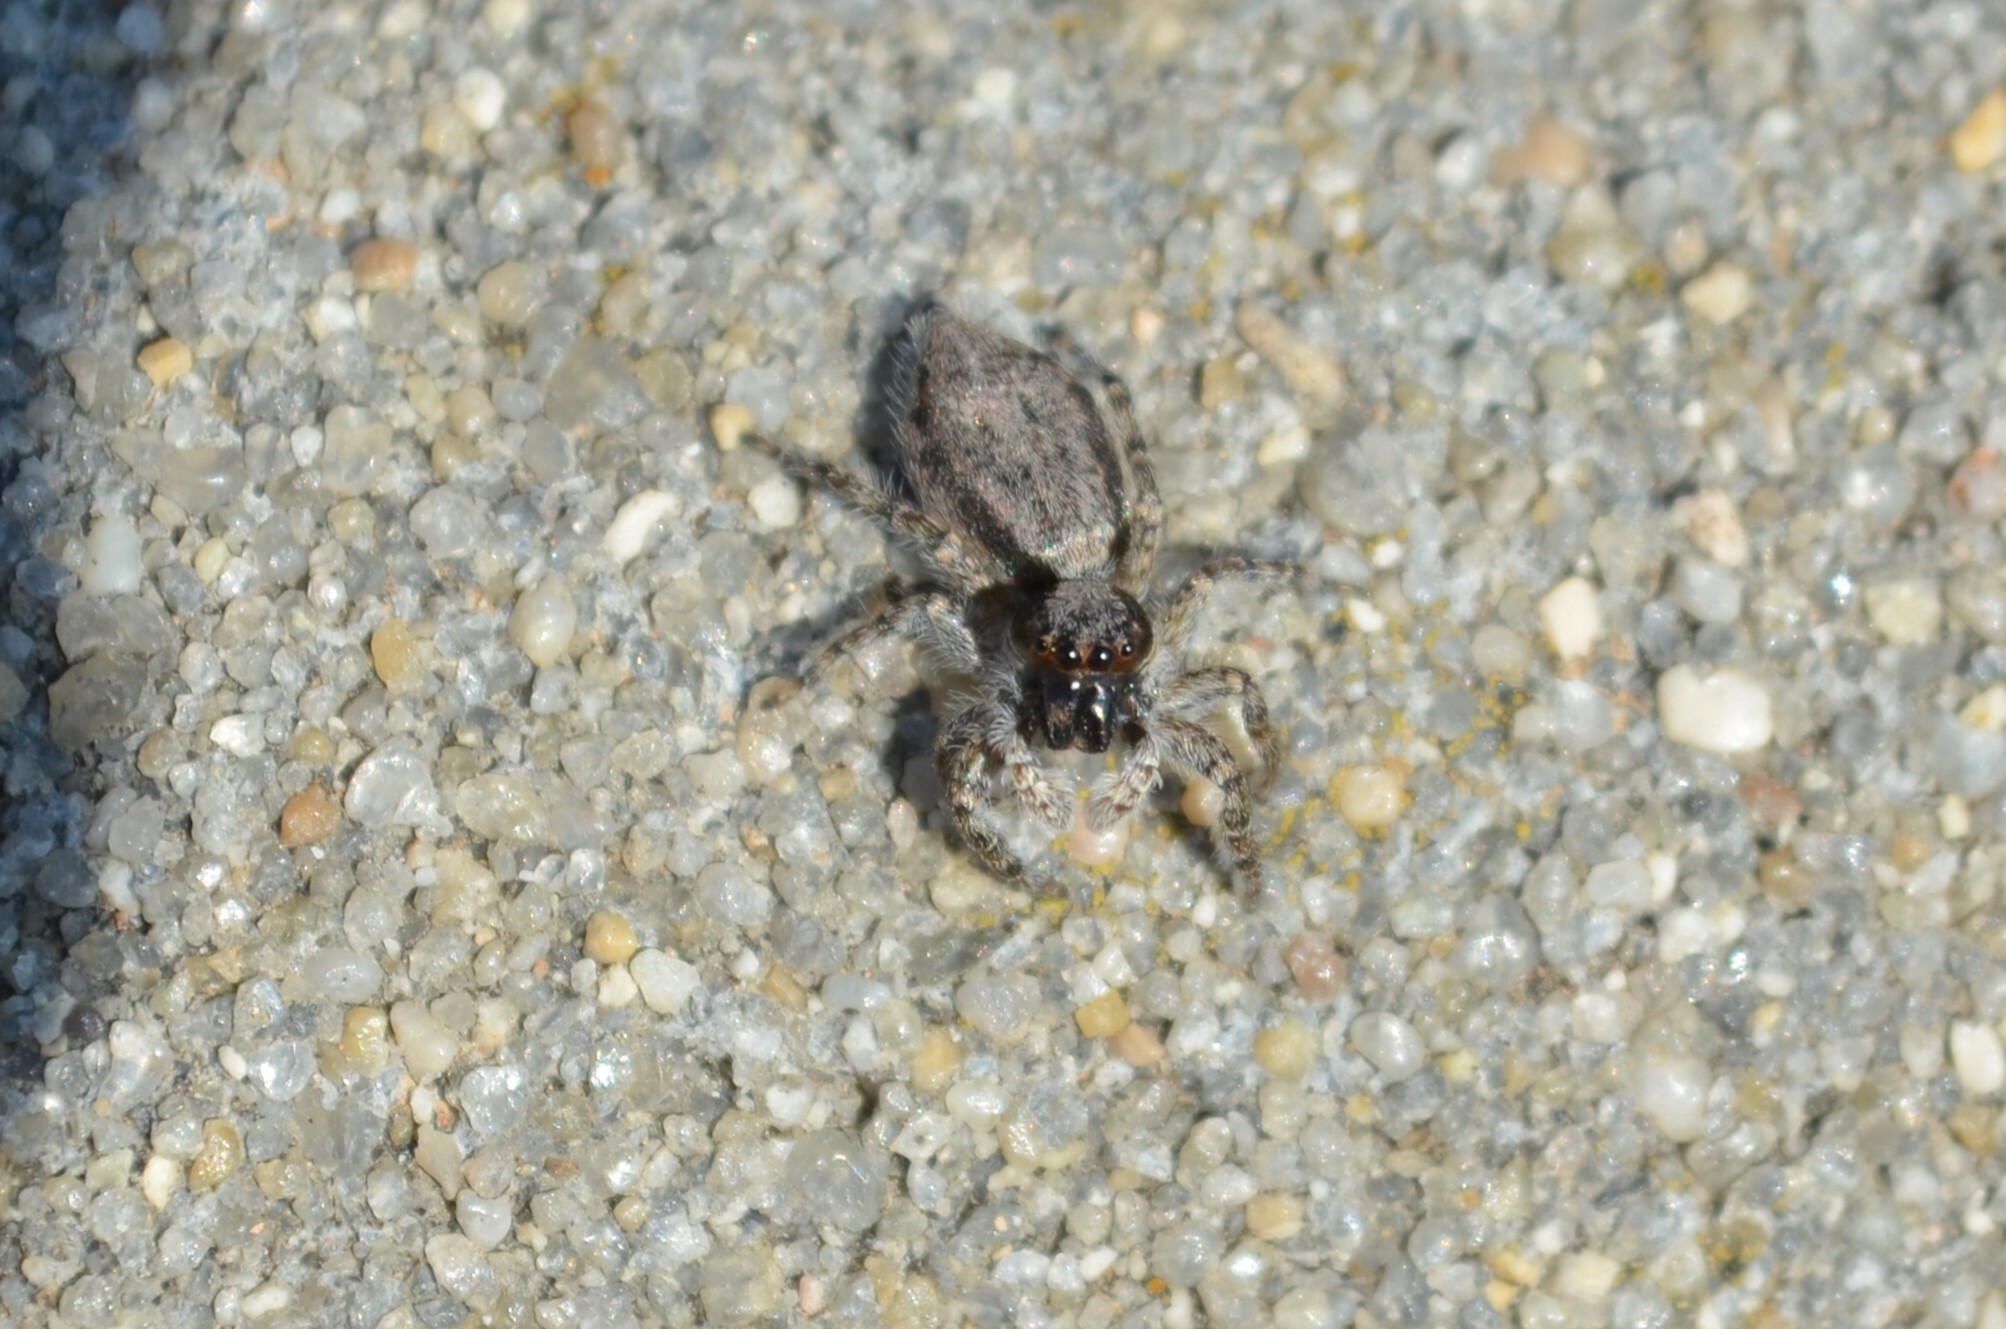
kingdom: Animalia
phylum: Arthropoda
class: Arachnida
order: Araneae
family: Salticidae
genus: Menemerus
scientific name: Menemerus taeniatus
